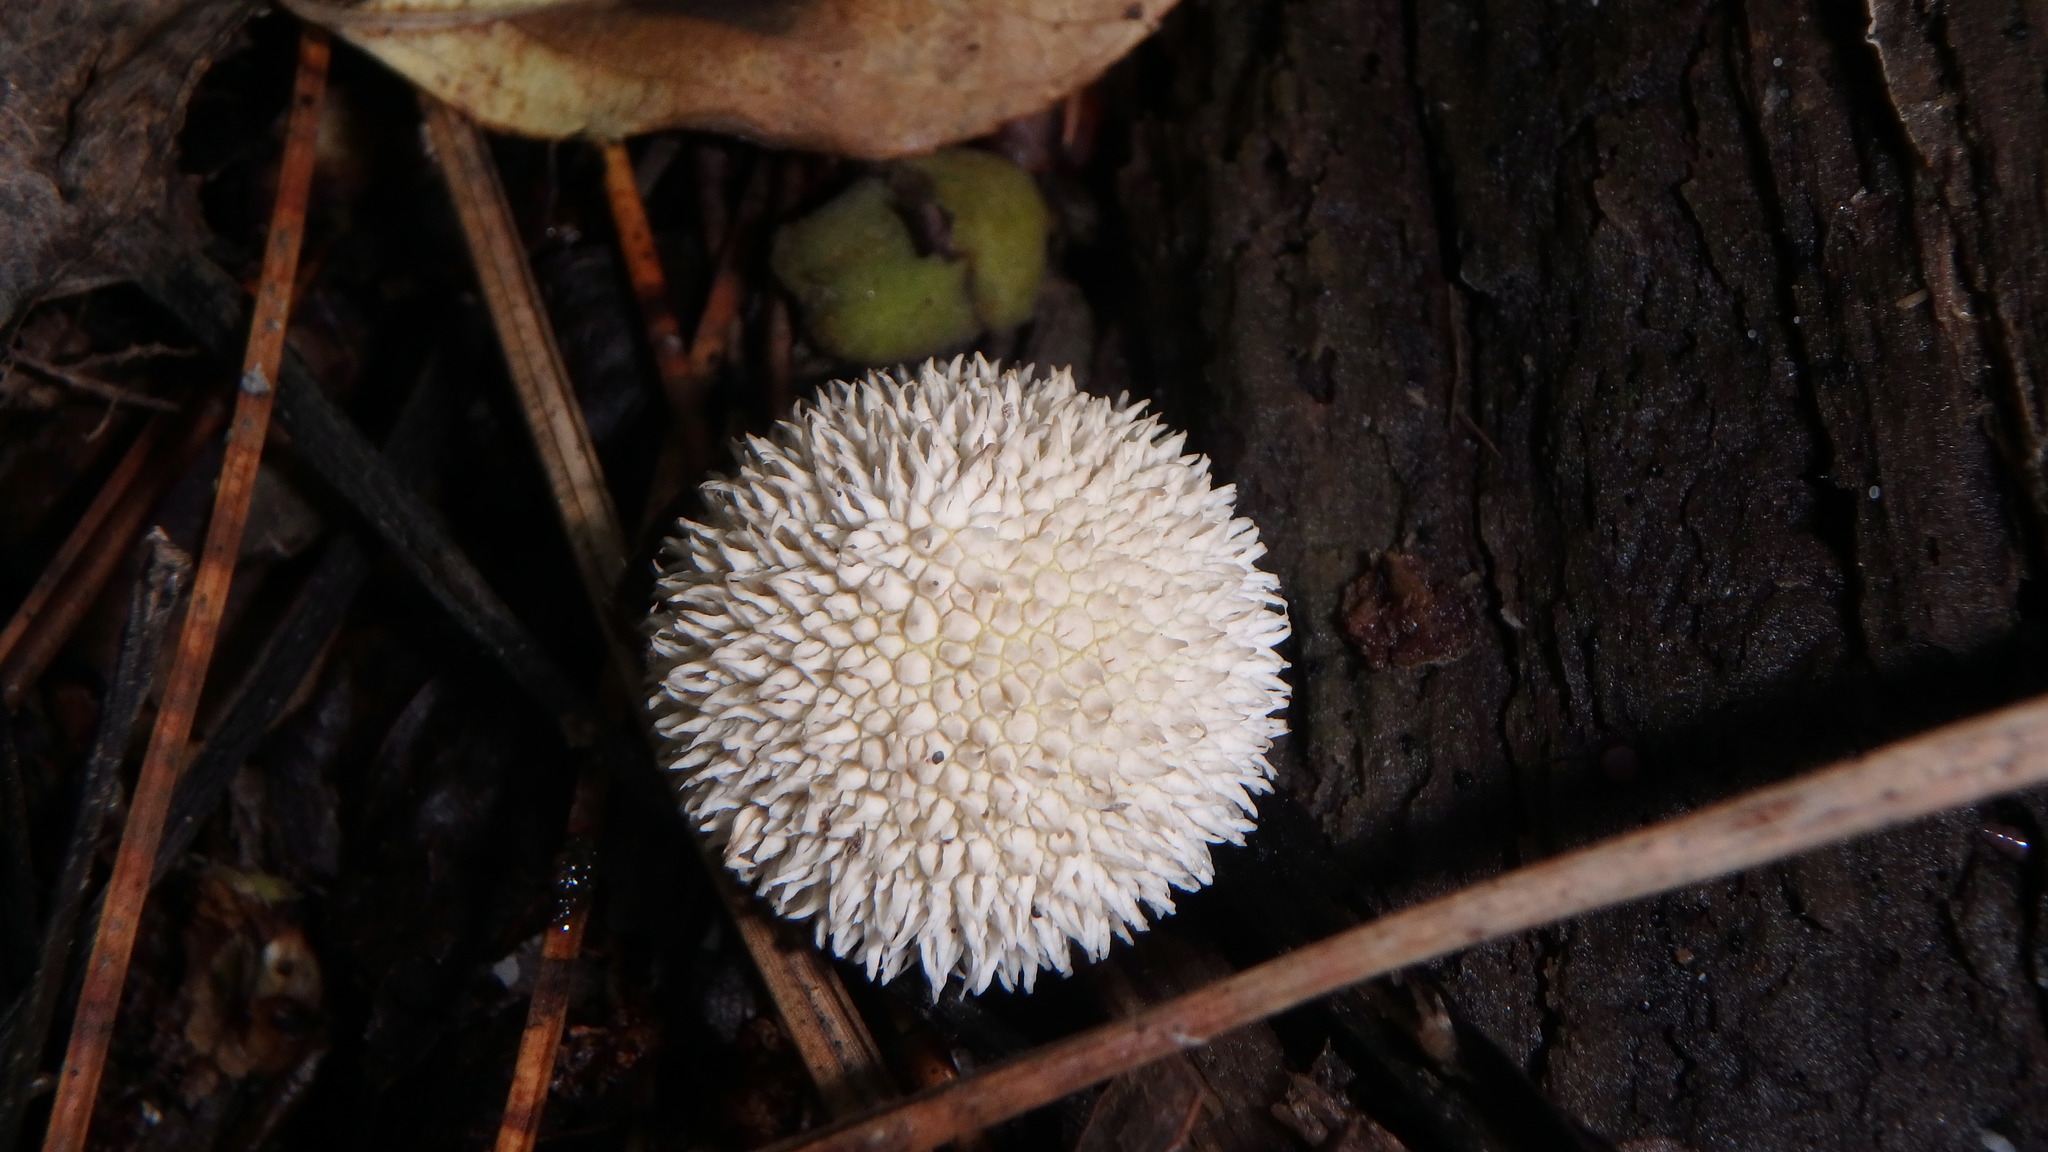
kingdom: Fungi
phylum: Basidiomycota
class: Agaricomycetes
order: Agaricales
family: Lycoperdaceae
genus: Lycoperdon
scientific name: Lycoperdon echinatum
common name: Hedgehog puffball
